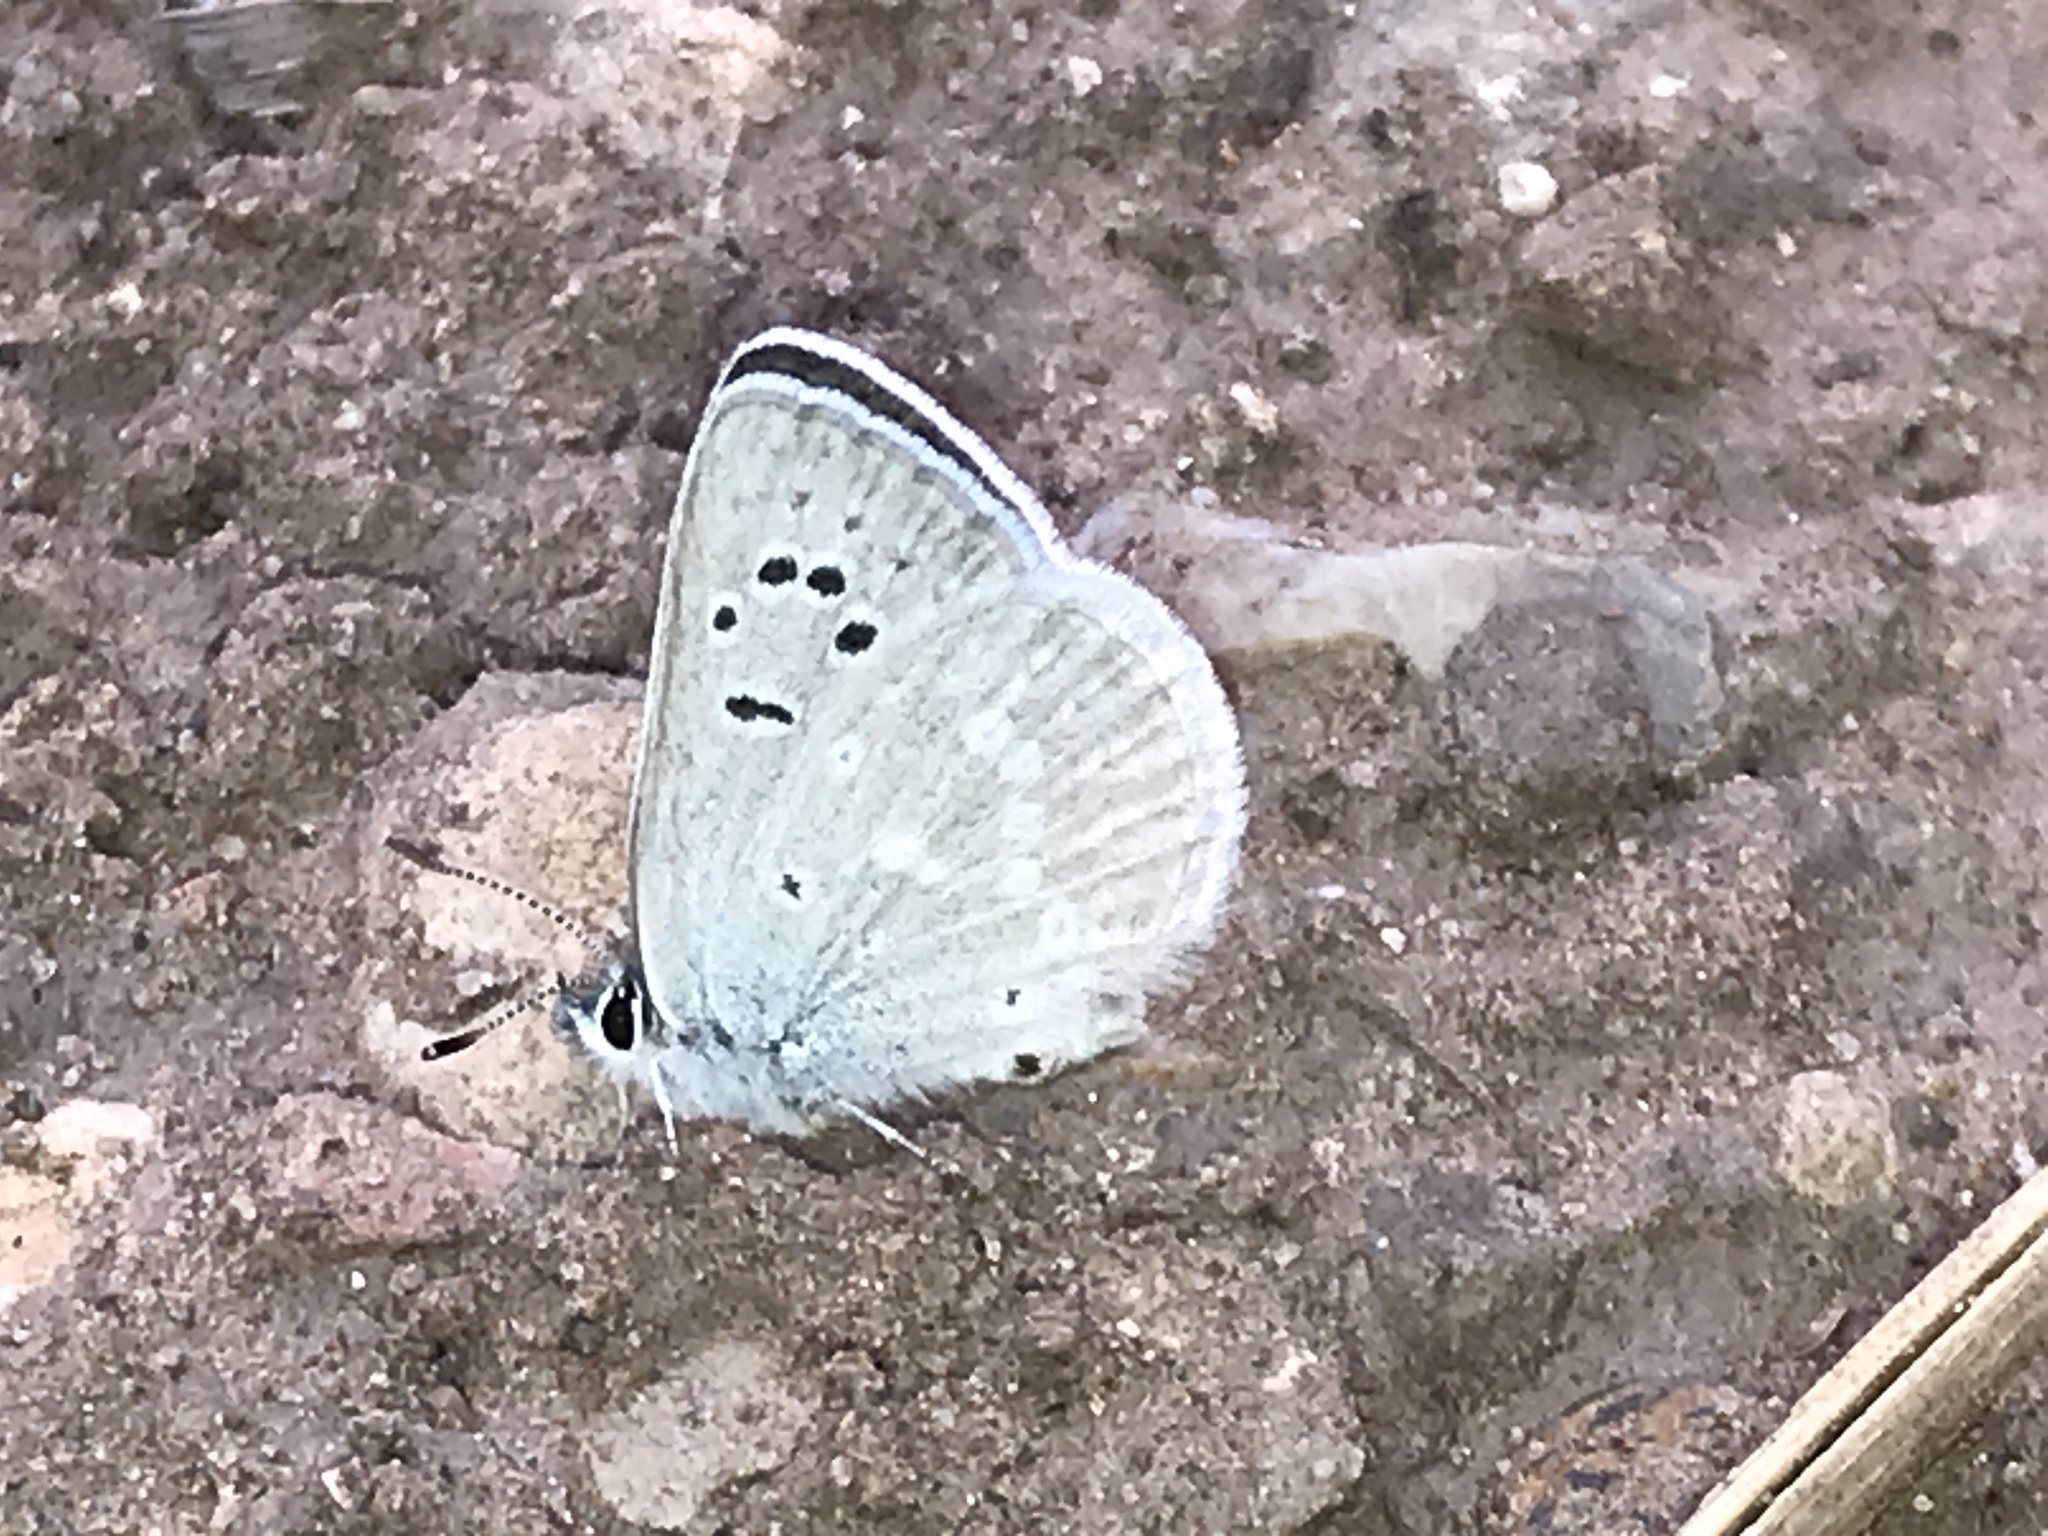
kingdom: Animalia
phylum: Arthropoda
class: Insecta
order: Lepidoptera
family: Lycaenidae
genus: Icaricia
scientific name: Icaricia icarioides
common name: Boisduval's blue
